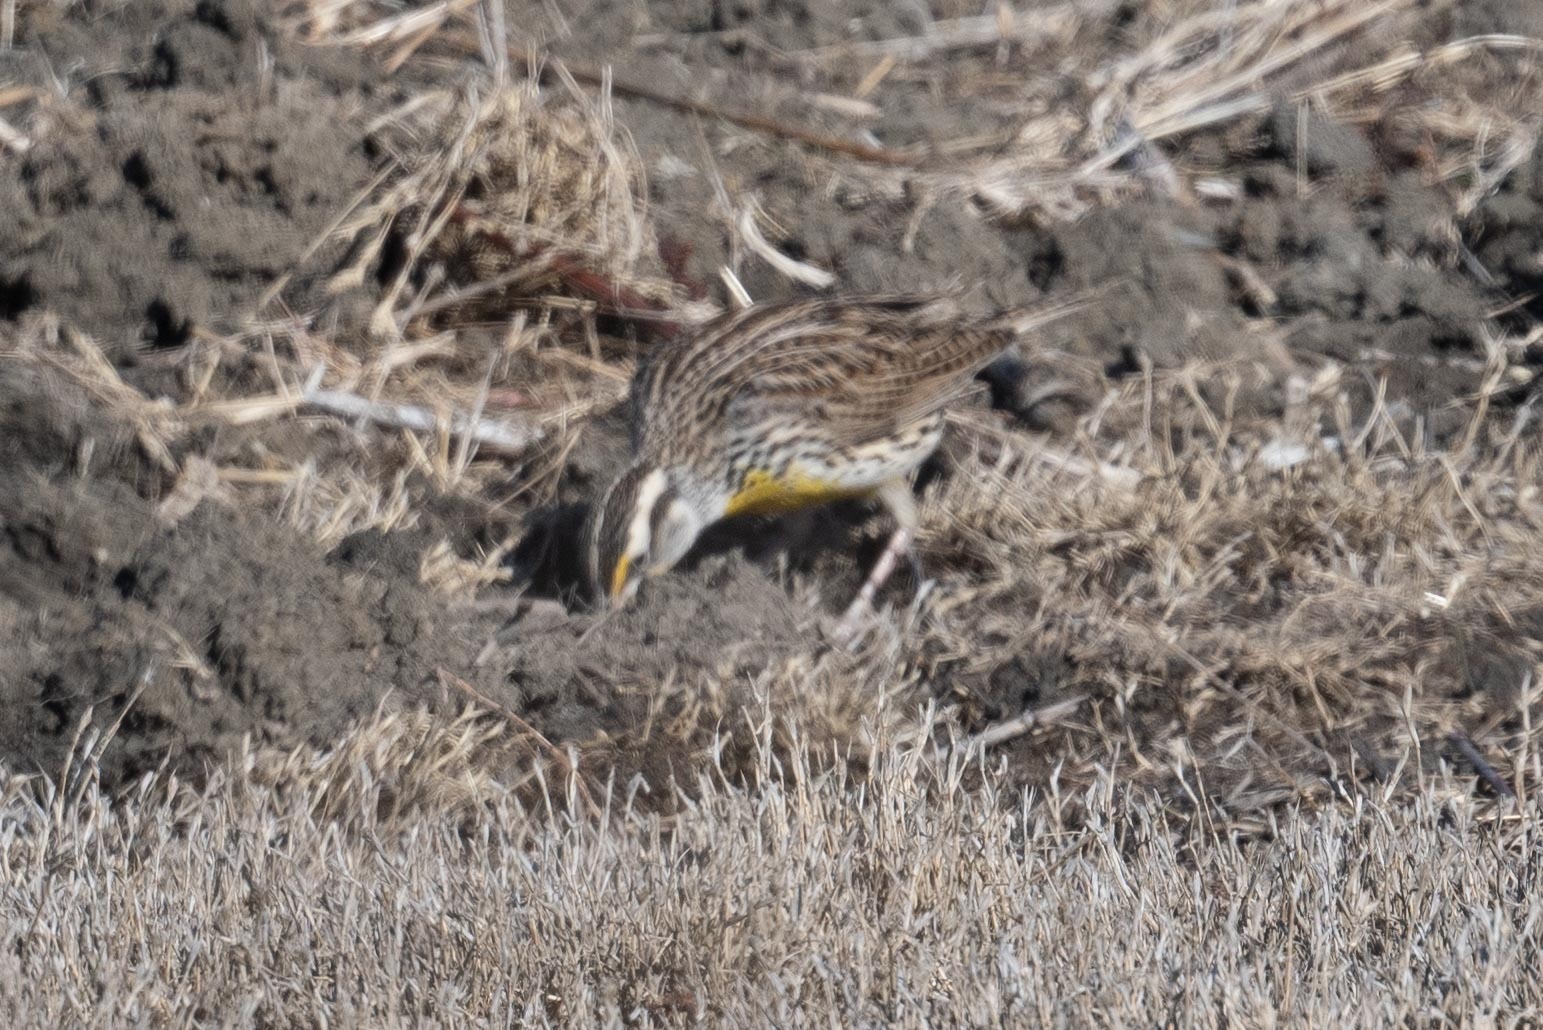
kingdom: Animalia
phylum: Chordata
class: Aves
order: Passeriformes
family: Icteridae
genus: Sturnella
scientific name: Sturnella neglecta
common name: Western meadowlark
